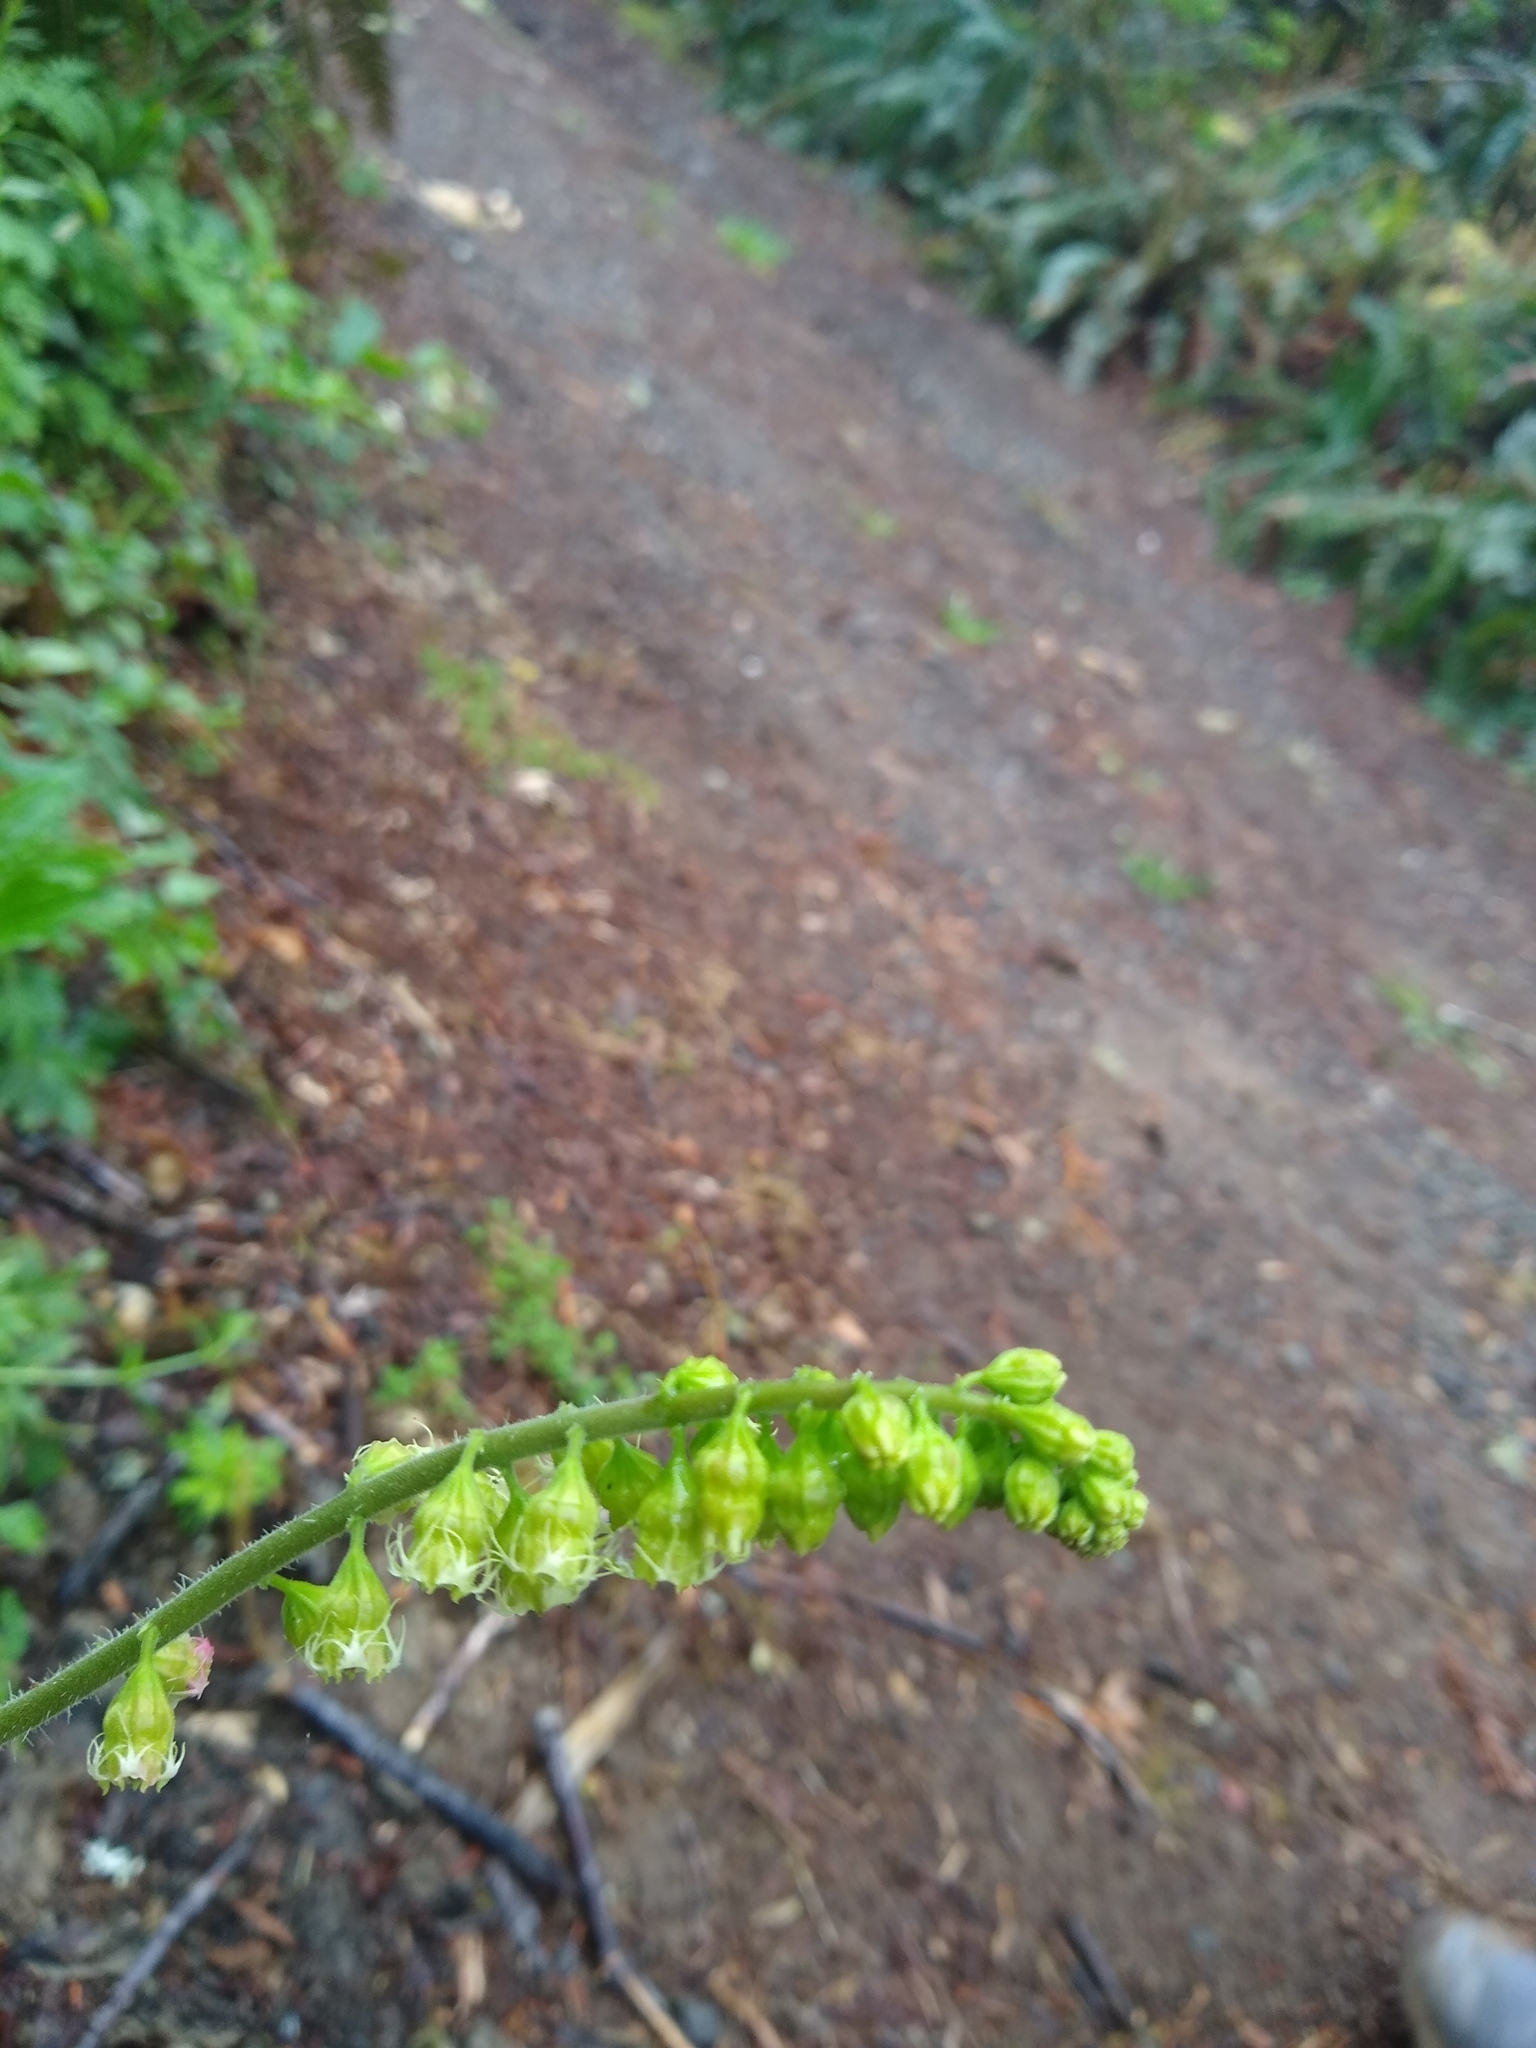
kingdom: Plantae
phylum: Tracheophyta
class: Magnoliopsida
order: Saxifragales
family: Saxifragaceae
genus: Tellima
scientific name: Tellima grandiflora
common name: Fringecups
